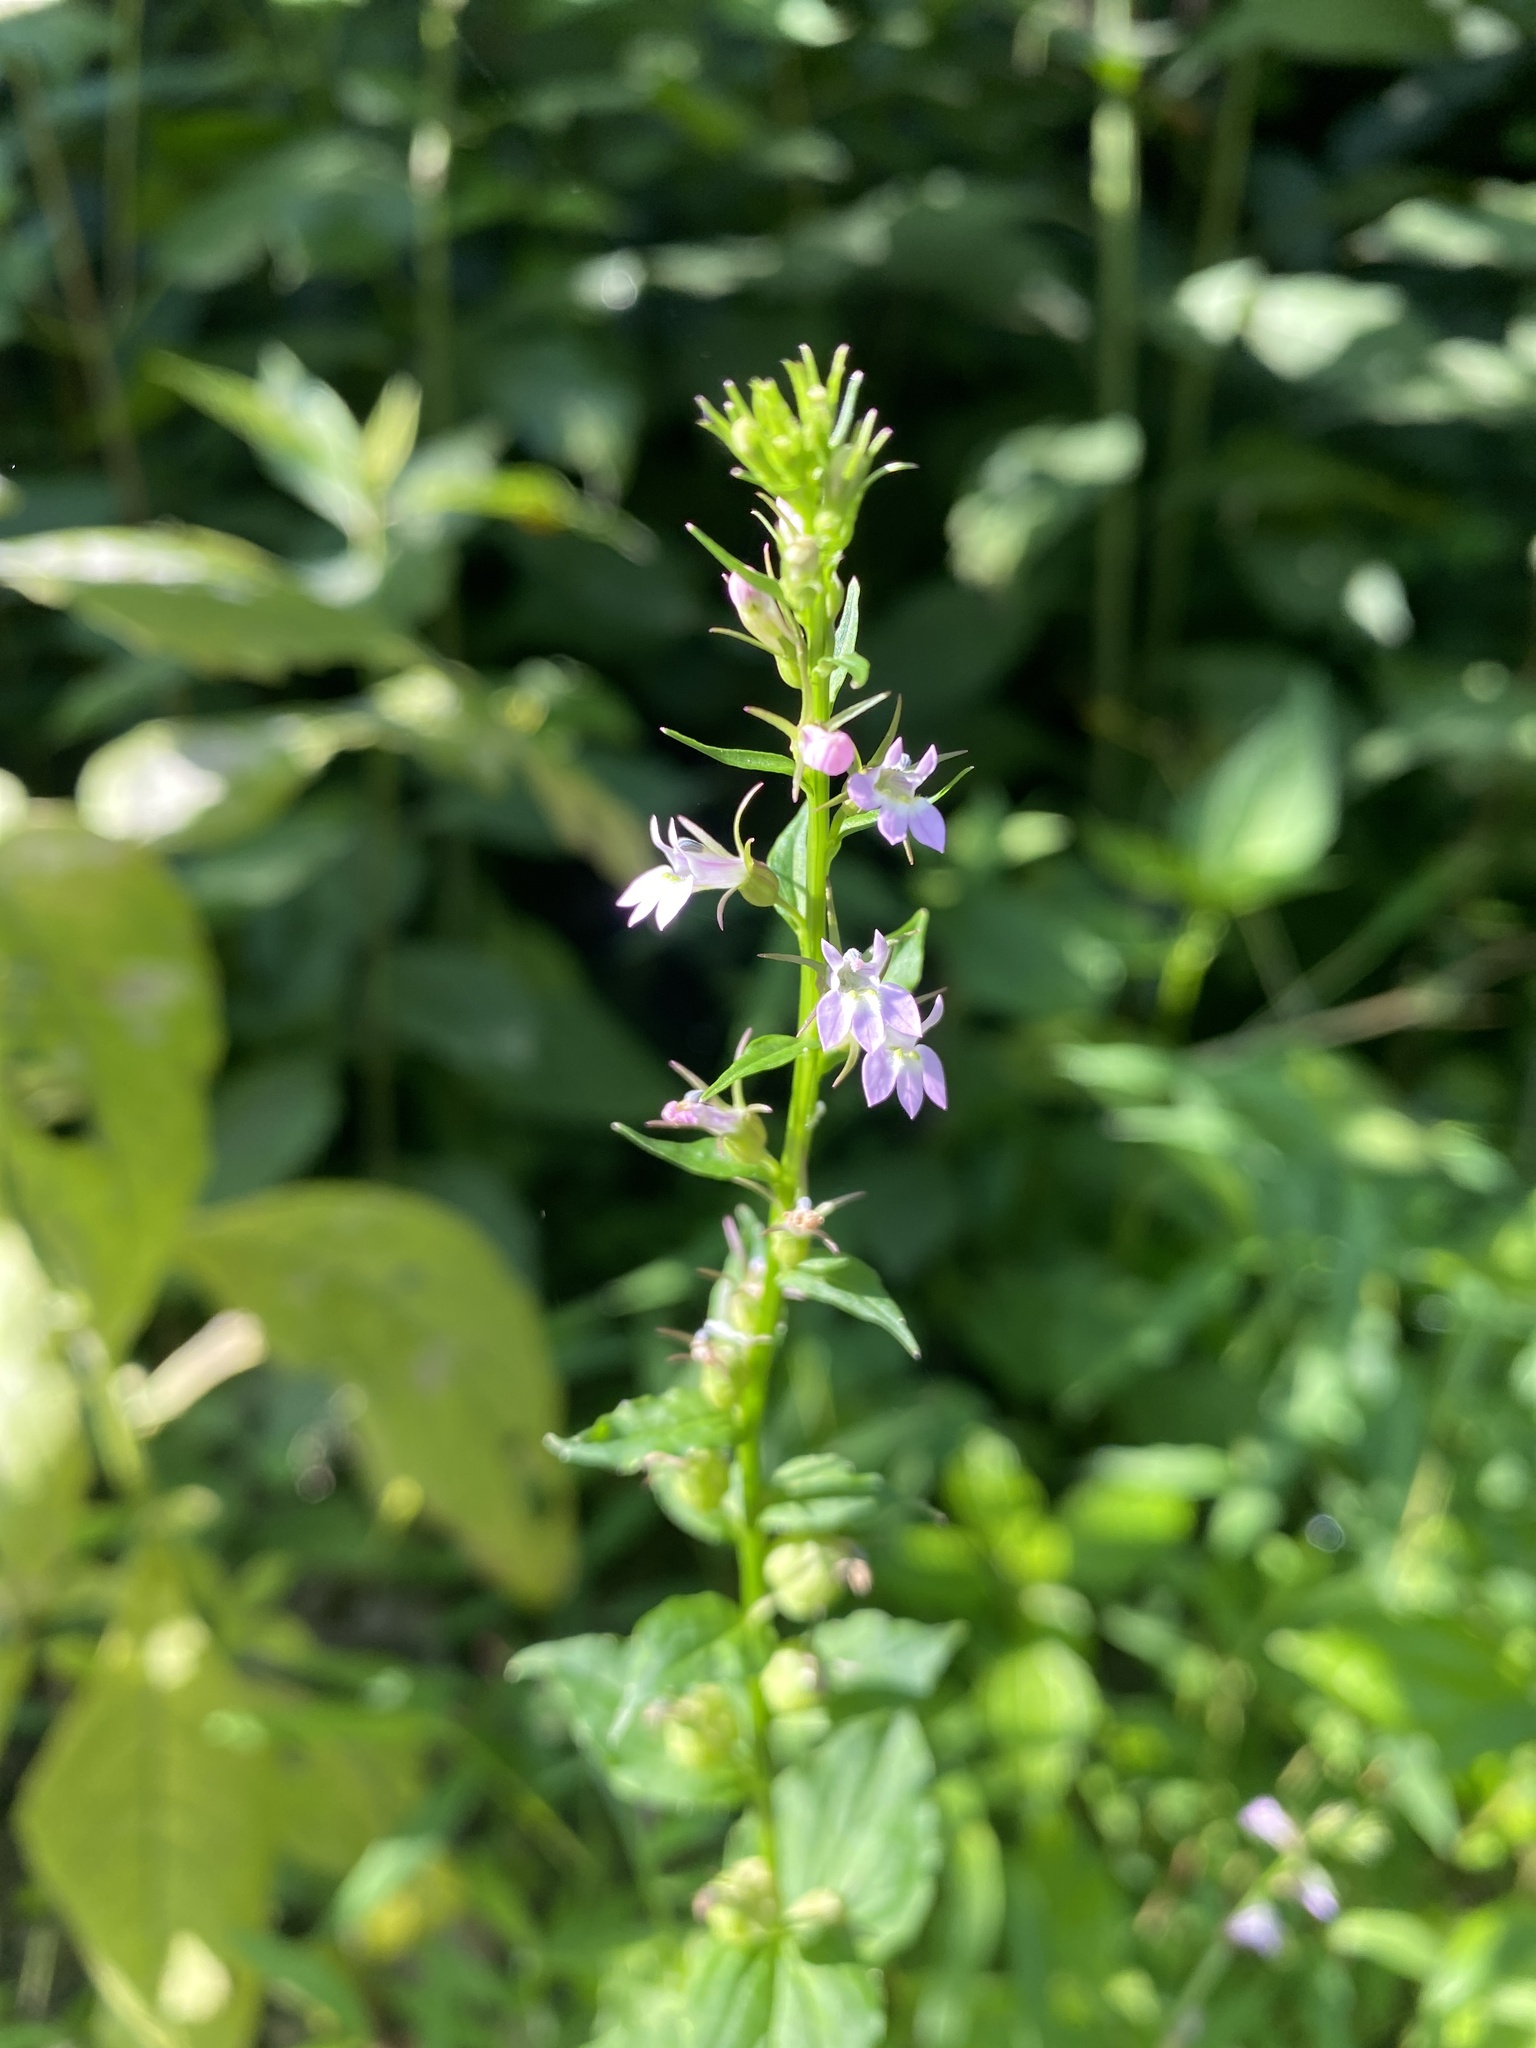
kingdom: Plantae
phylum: Tracheophyta
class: Magnoliopsida
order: Asterales
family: Campanulaceae
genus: Lobelia
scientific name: Lobelia inflata
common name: Indian tobacco
